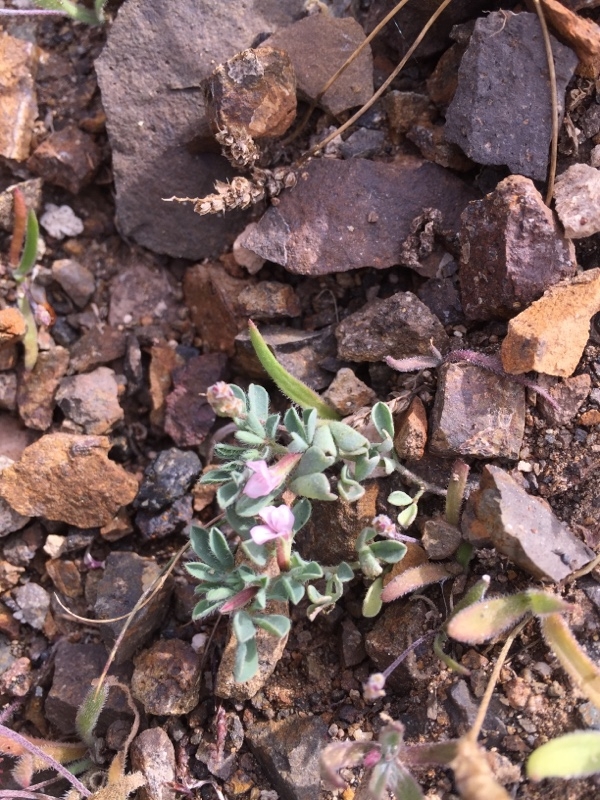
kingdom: Plantae
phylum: Tracheophyta
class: Magnoliopsida
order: Fabales
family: Fabaceae
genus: Lotus
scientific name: Lotus glinoides
